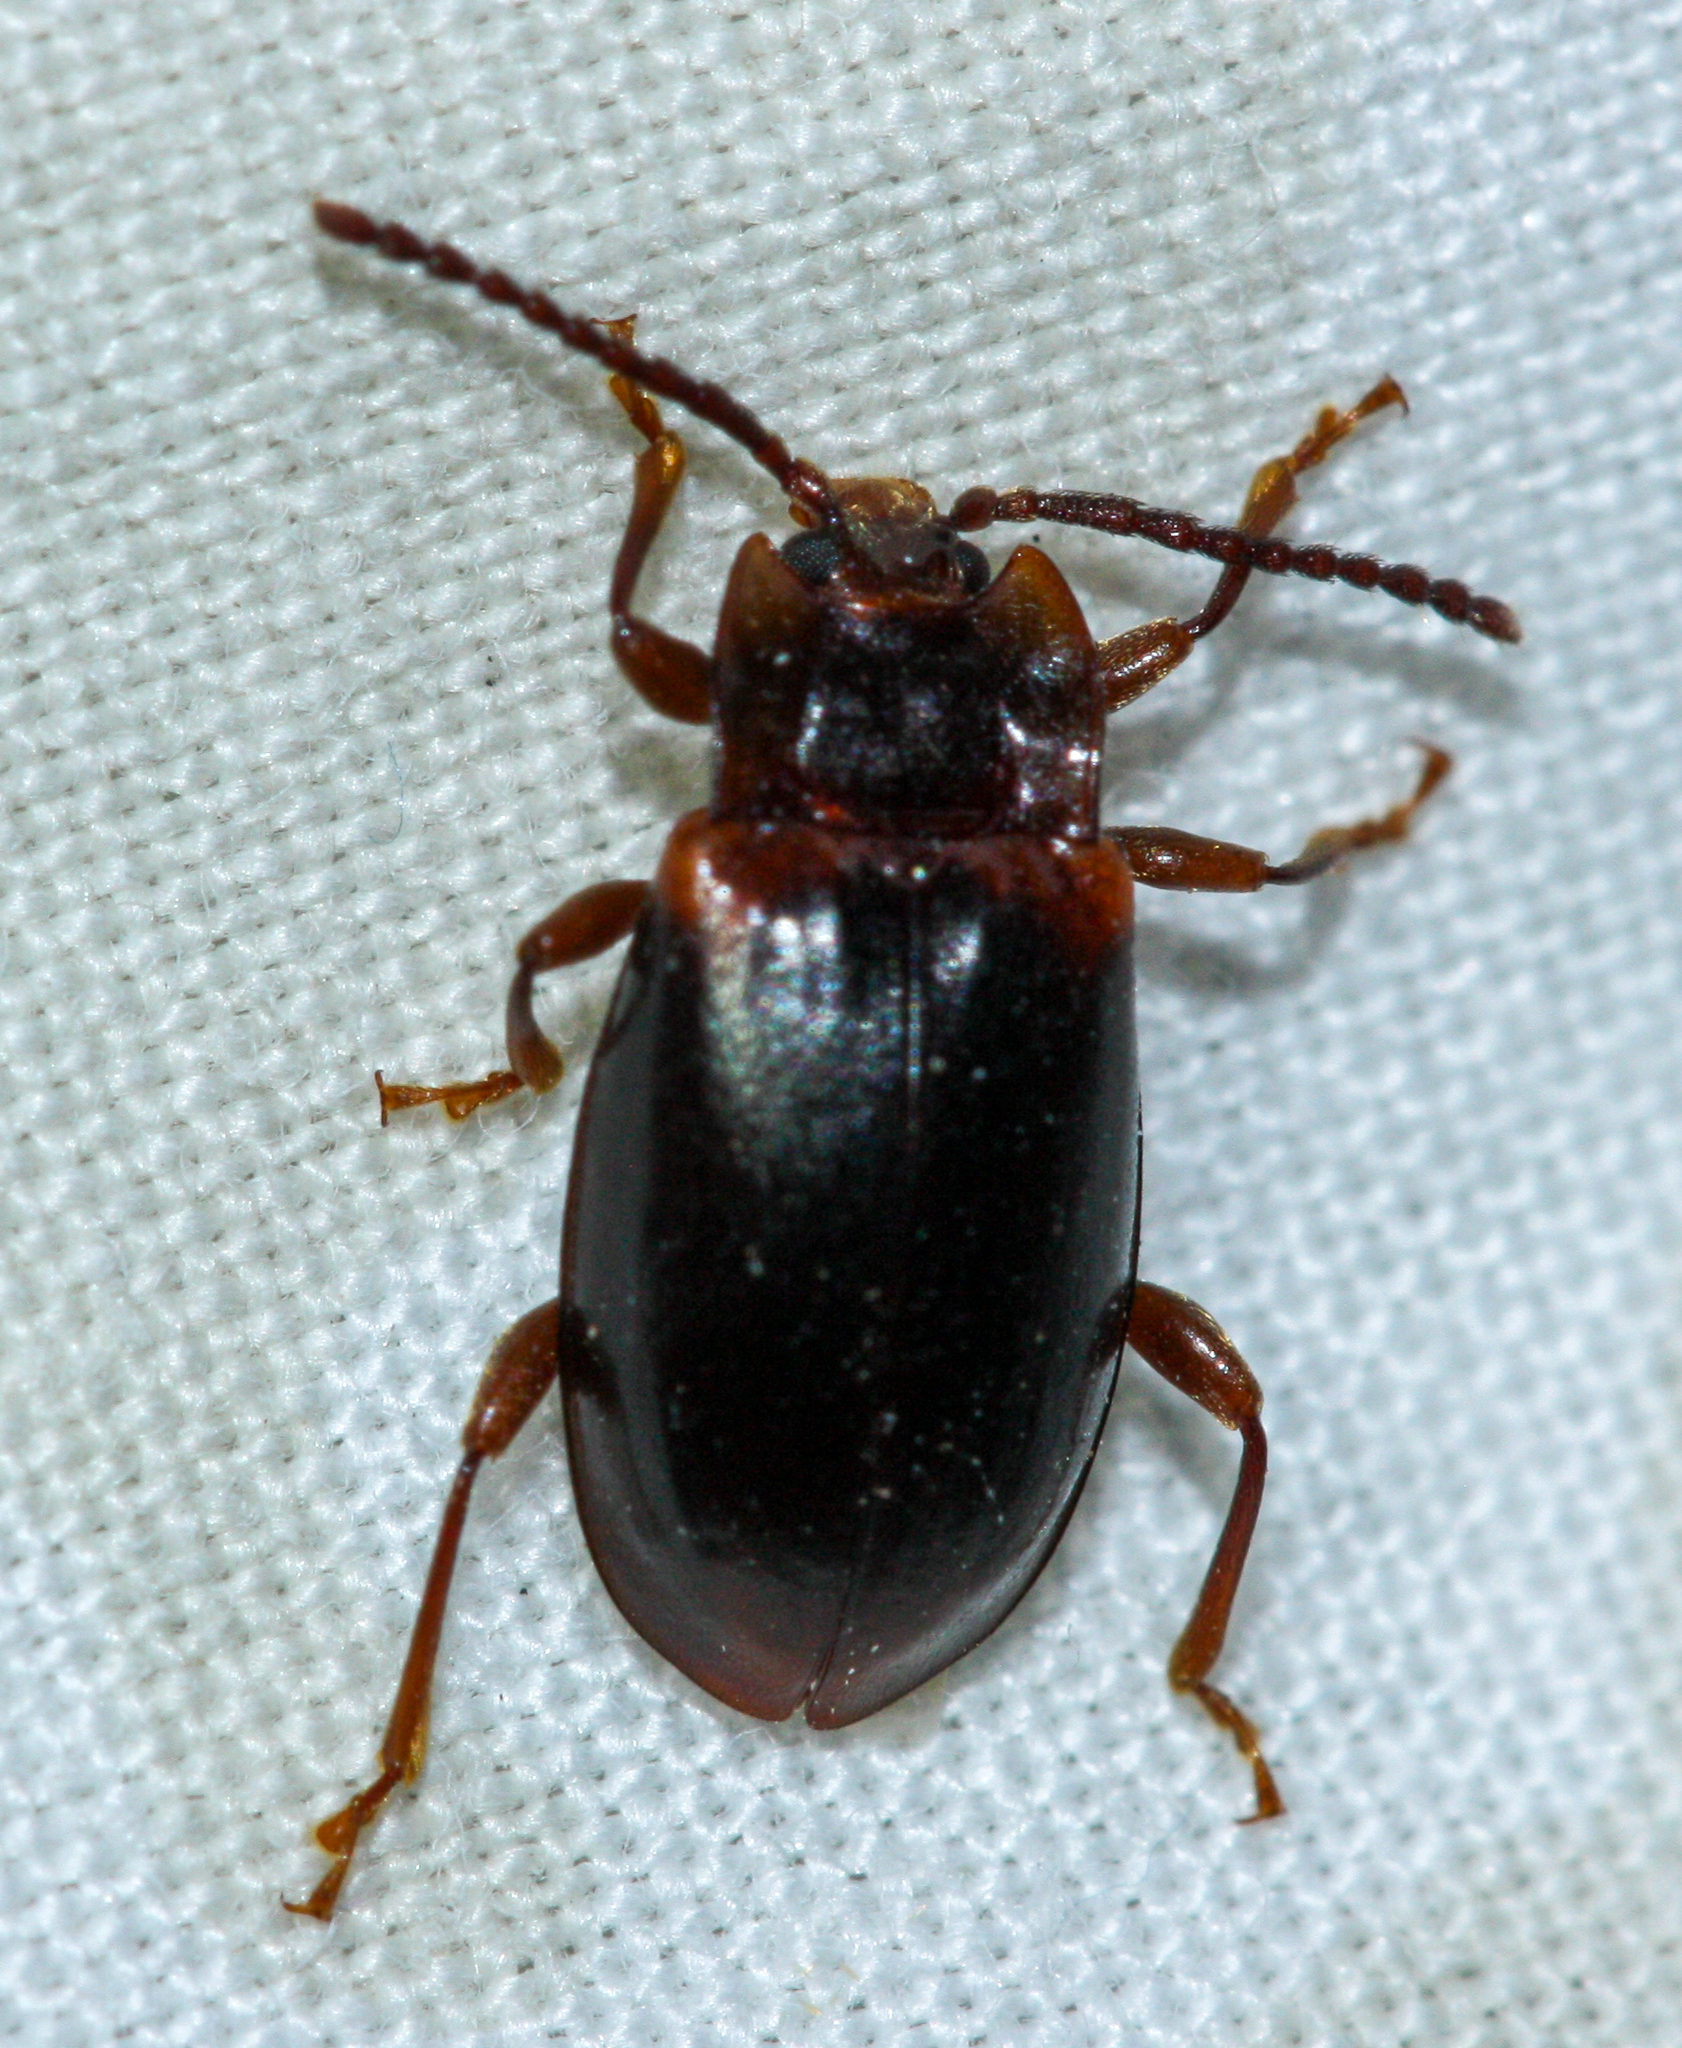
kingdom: Animalia
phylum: Arthropoda
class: Insecta
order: Coleoptera
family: Endomychidae
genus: Aphorista
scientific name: Aphorista morosa
